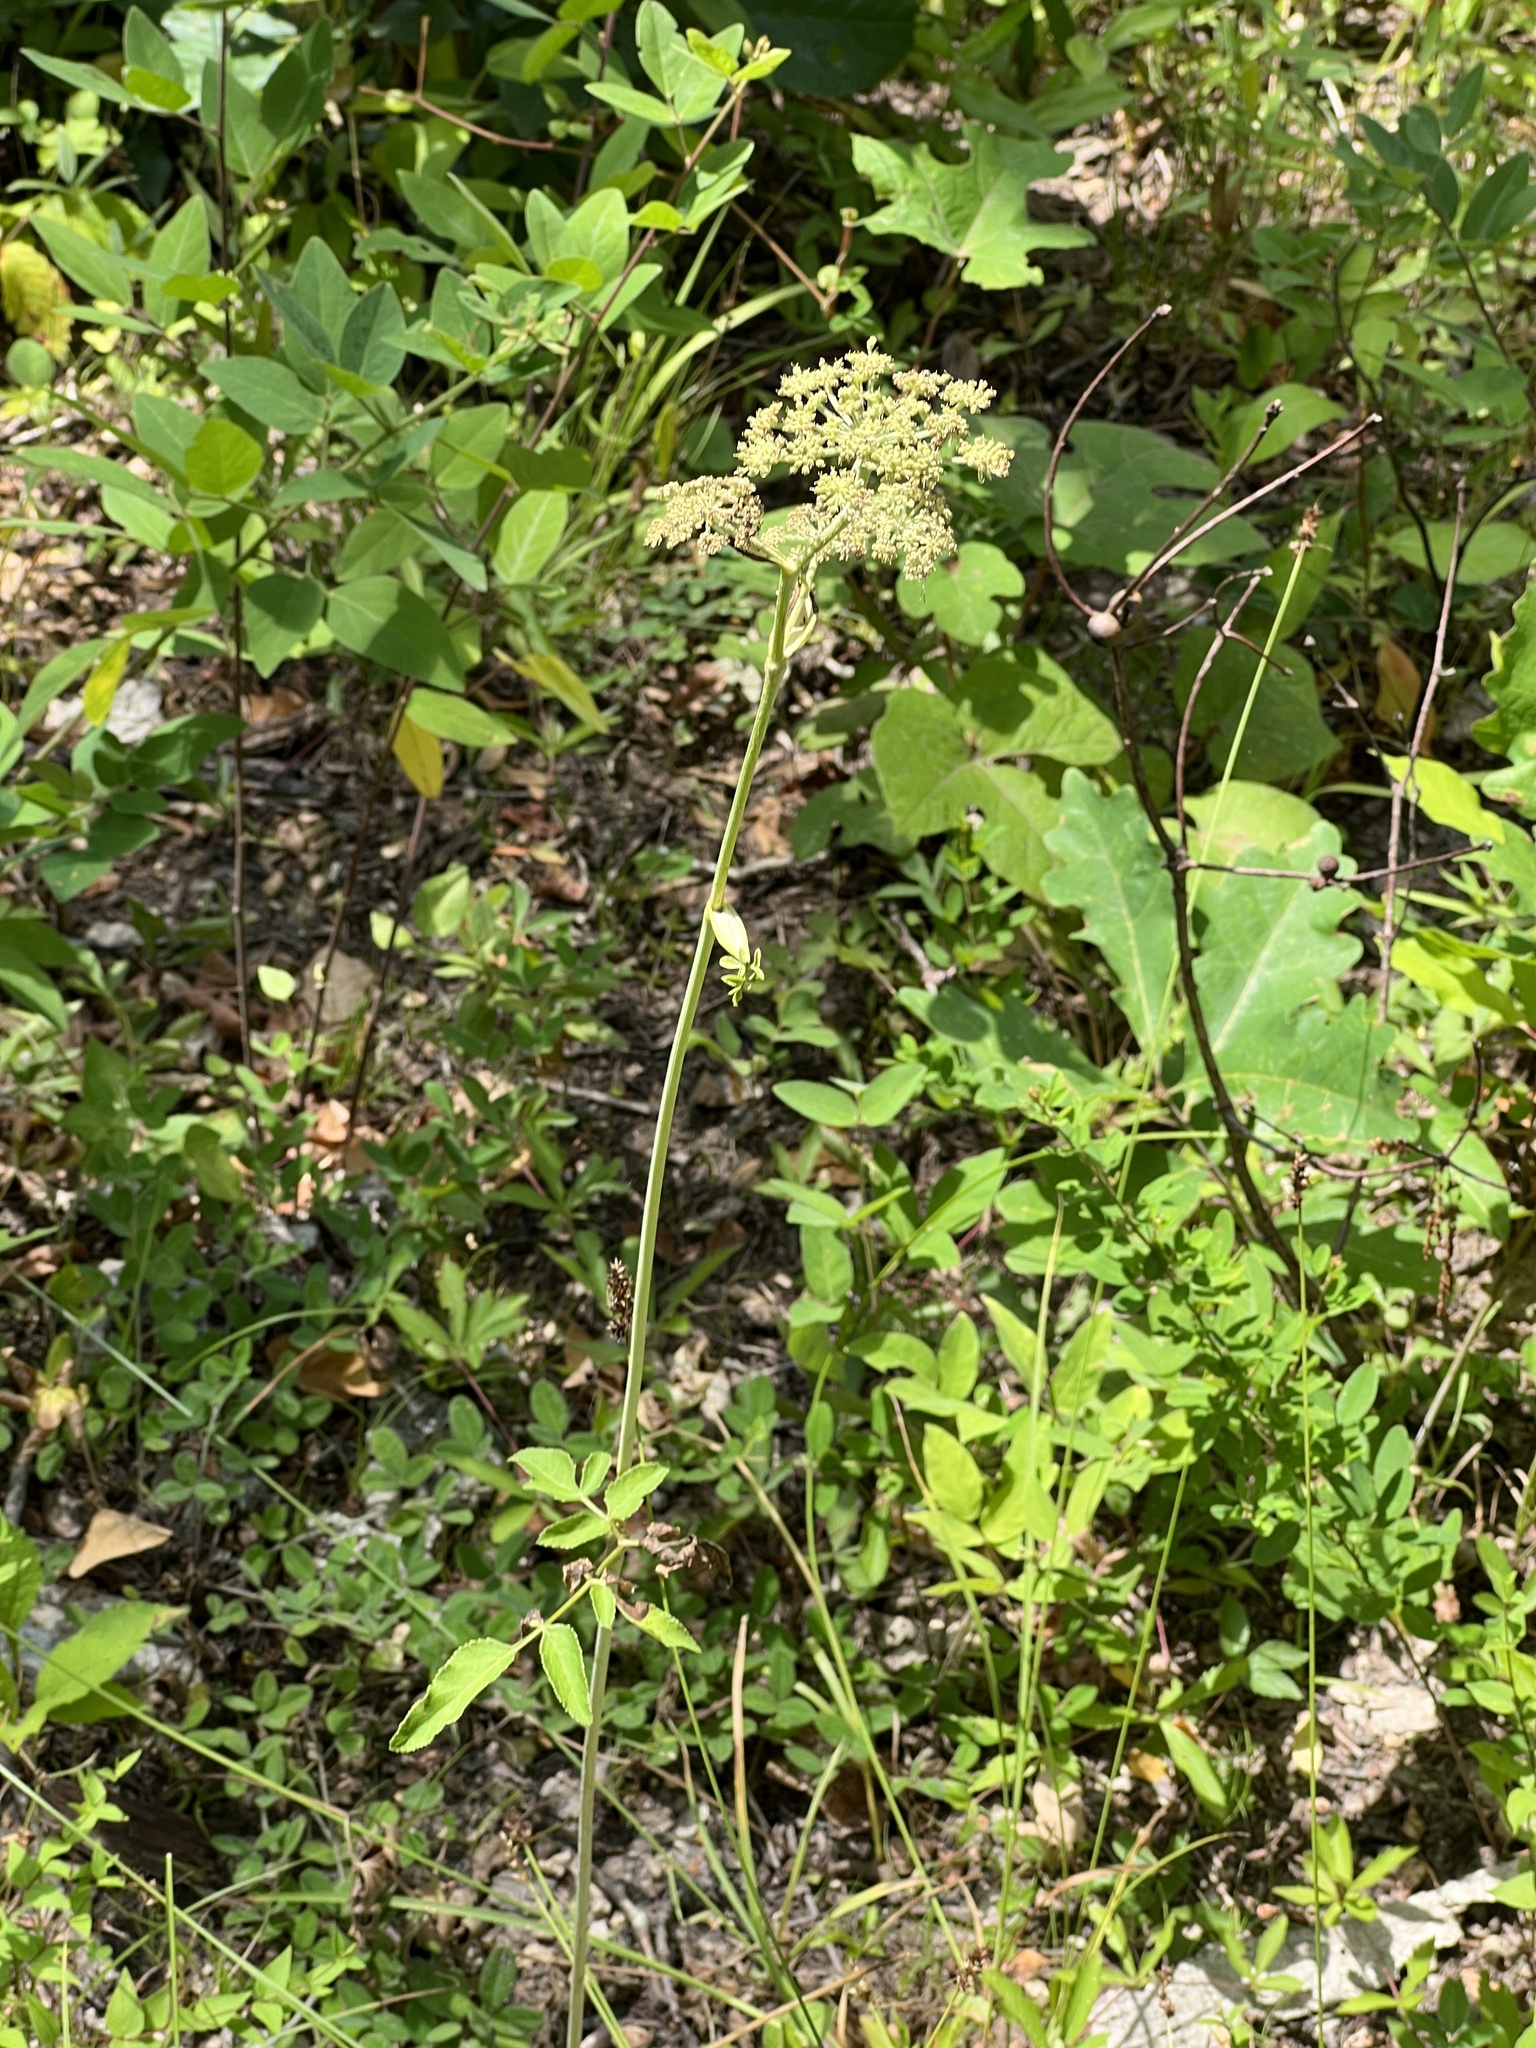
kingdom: Plantae
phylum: Tracheophyta
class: Magnoliopsida
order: Apiales
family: Apiaceae
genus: Angelica
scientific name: Angelica venenosa
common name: Hairy angelica
